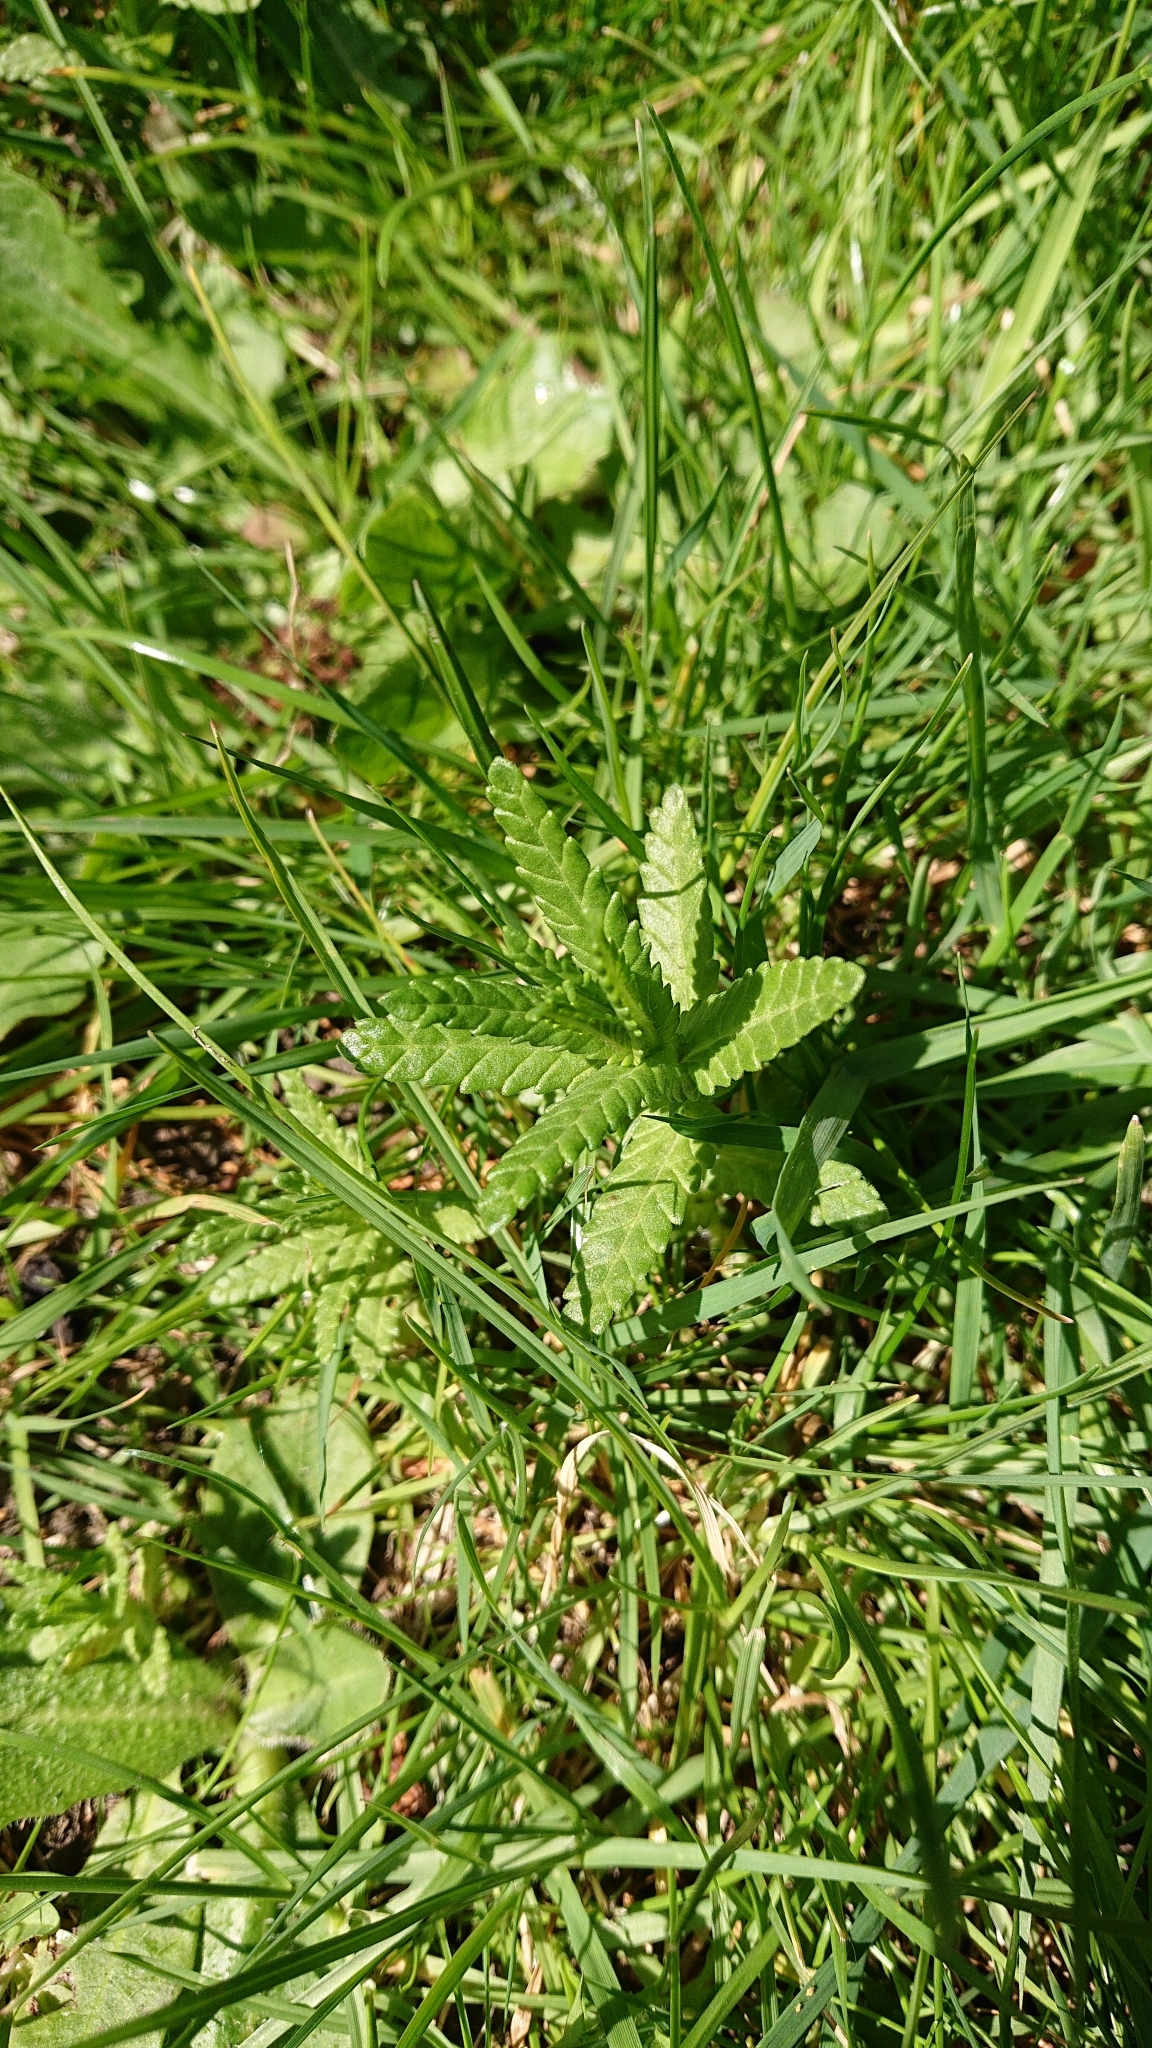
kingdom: Plantae
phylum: Tracheophyta
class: Magnoliopsida
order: Lamiales
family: Orobanchaceae
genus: Rhinanthus
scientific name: Rhinanthus minor
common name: Yellow-rattle
